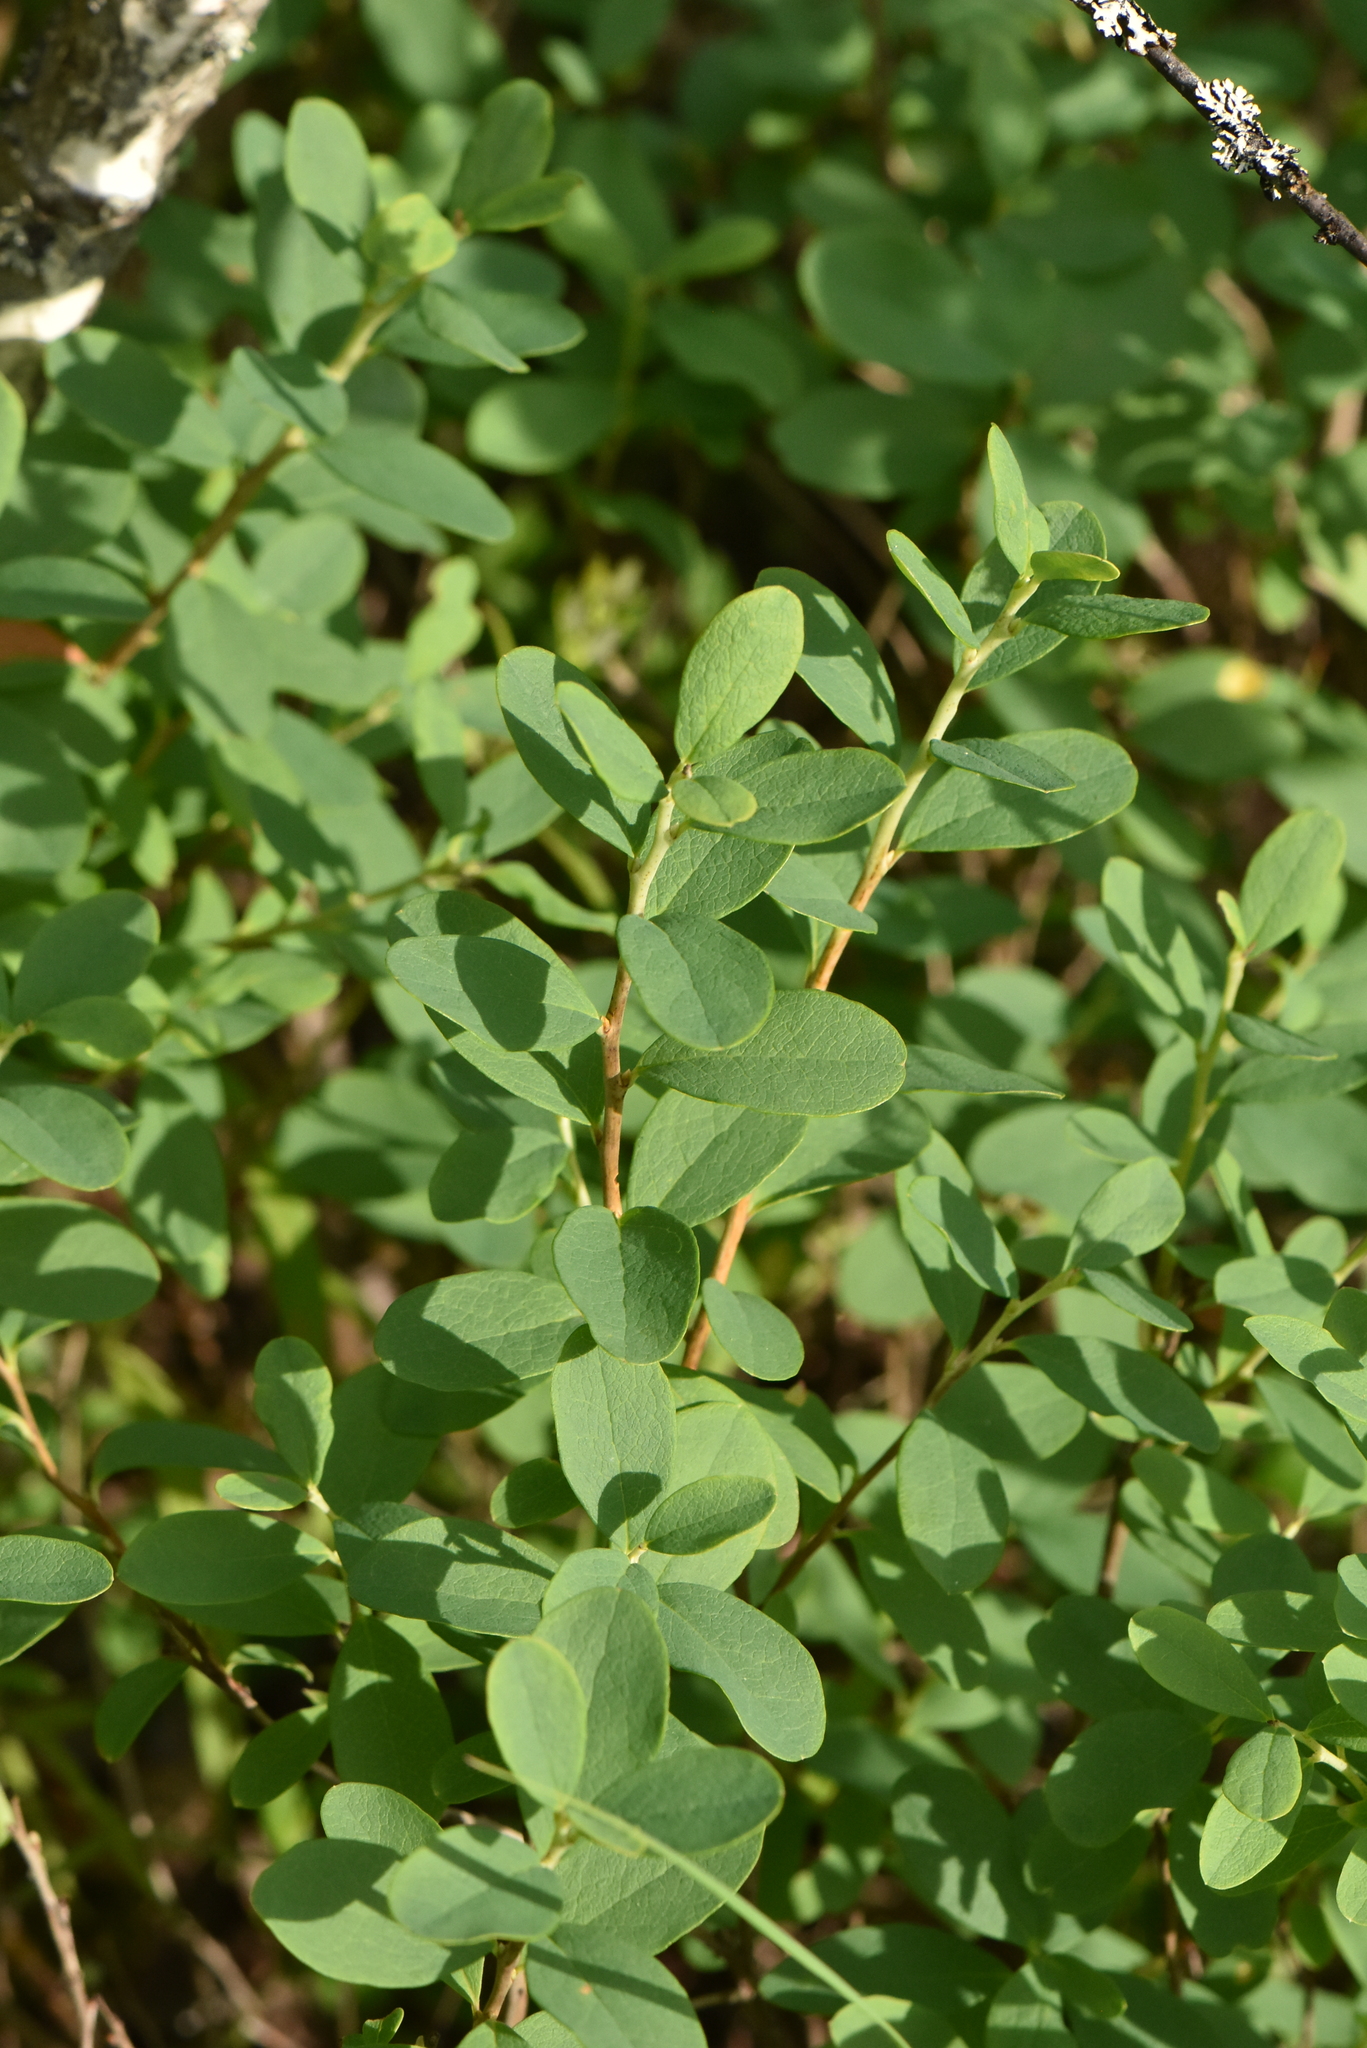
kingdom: Plantae
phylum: Tracheophyta
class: Magnoliopsida
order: Ericales
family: Ericaceae
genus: Vaccinium
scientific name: Vaccinium uliginosum
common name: Bog bilberry
